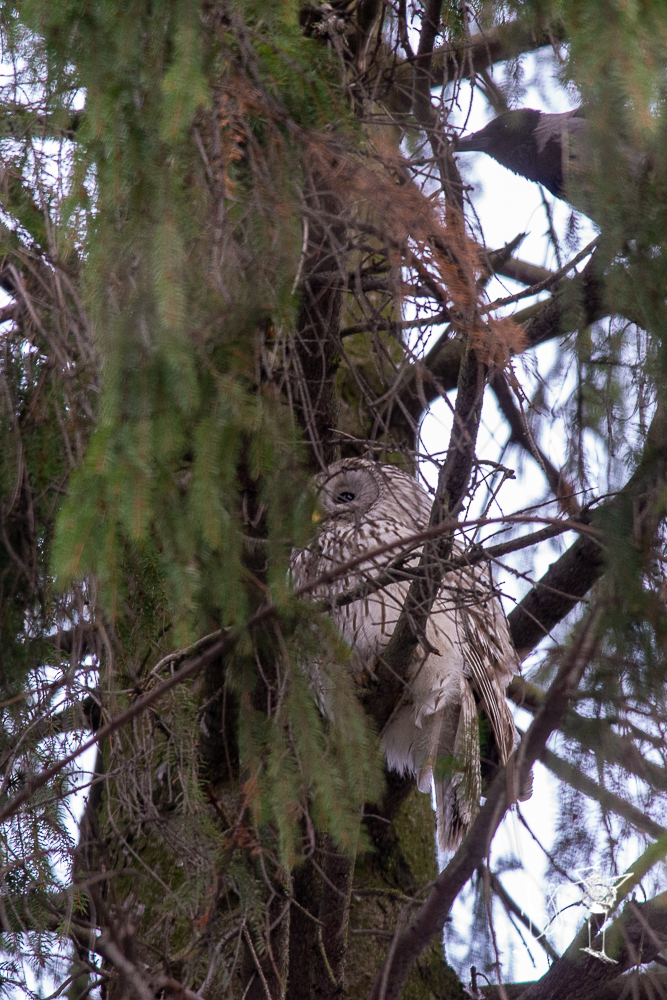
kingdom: Animalia
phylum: Chordata
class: Aves
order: Strigiformes
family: Strigidae
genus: Strix
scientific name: Strix uralensis
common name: Ural owl
